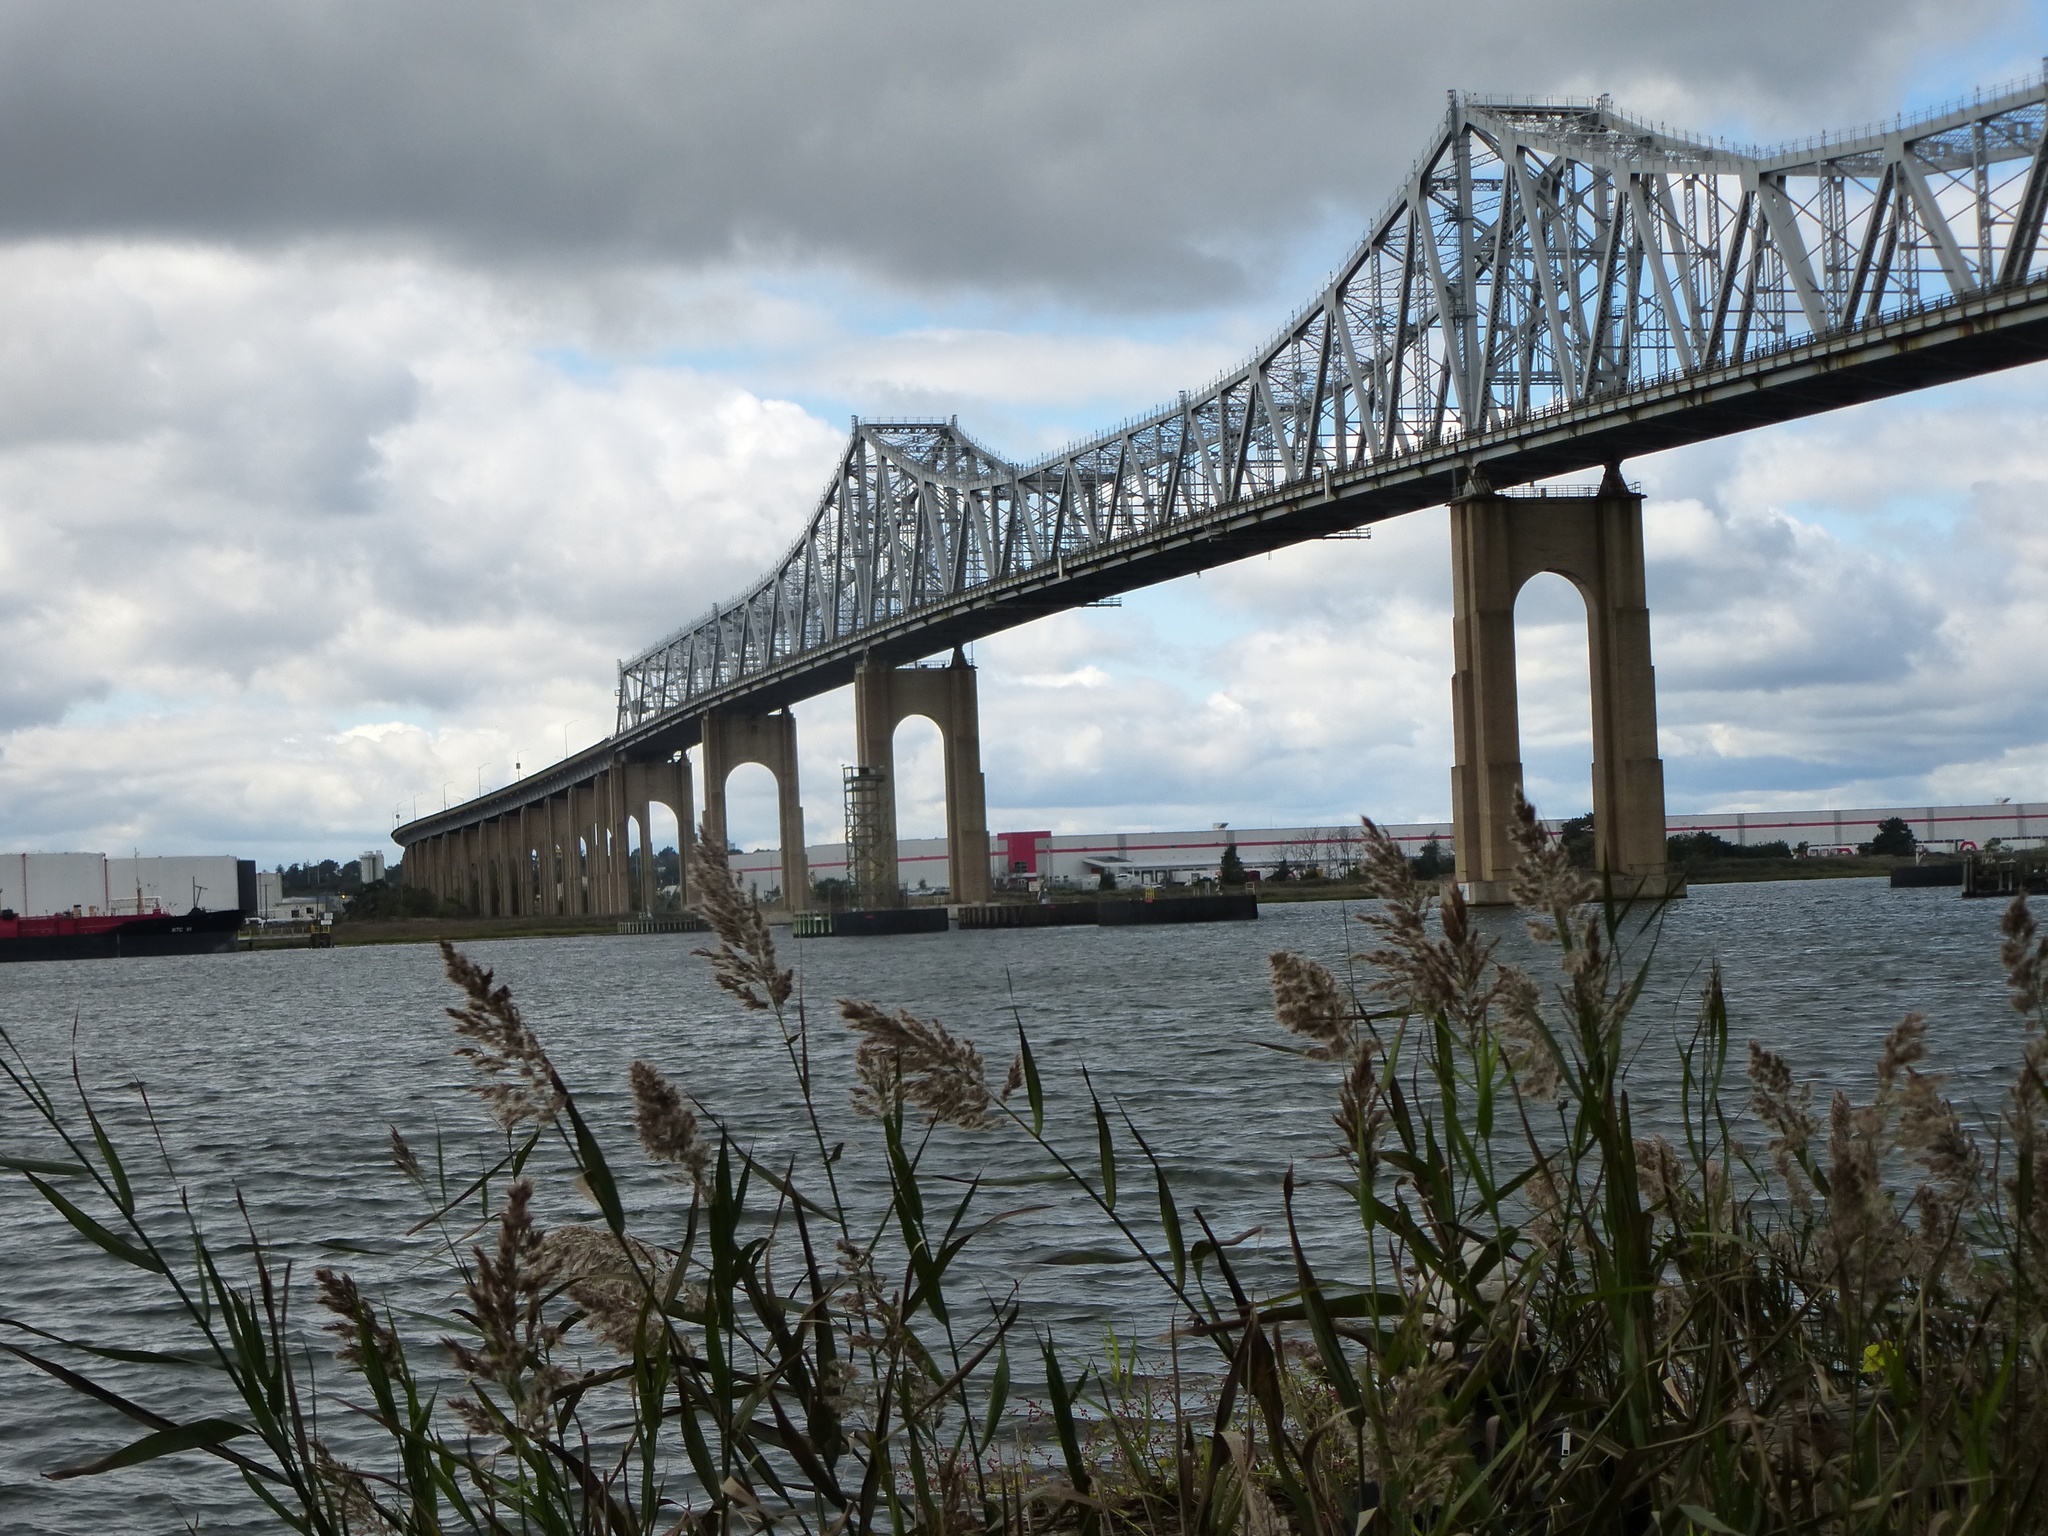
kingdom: Plantae
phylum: Tracheophyta
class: Liliopsida
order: Poales
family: Poaceae
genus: Phragmites
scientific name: Phragmites australis
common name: Common reed
